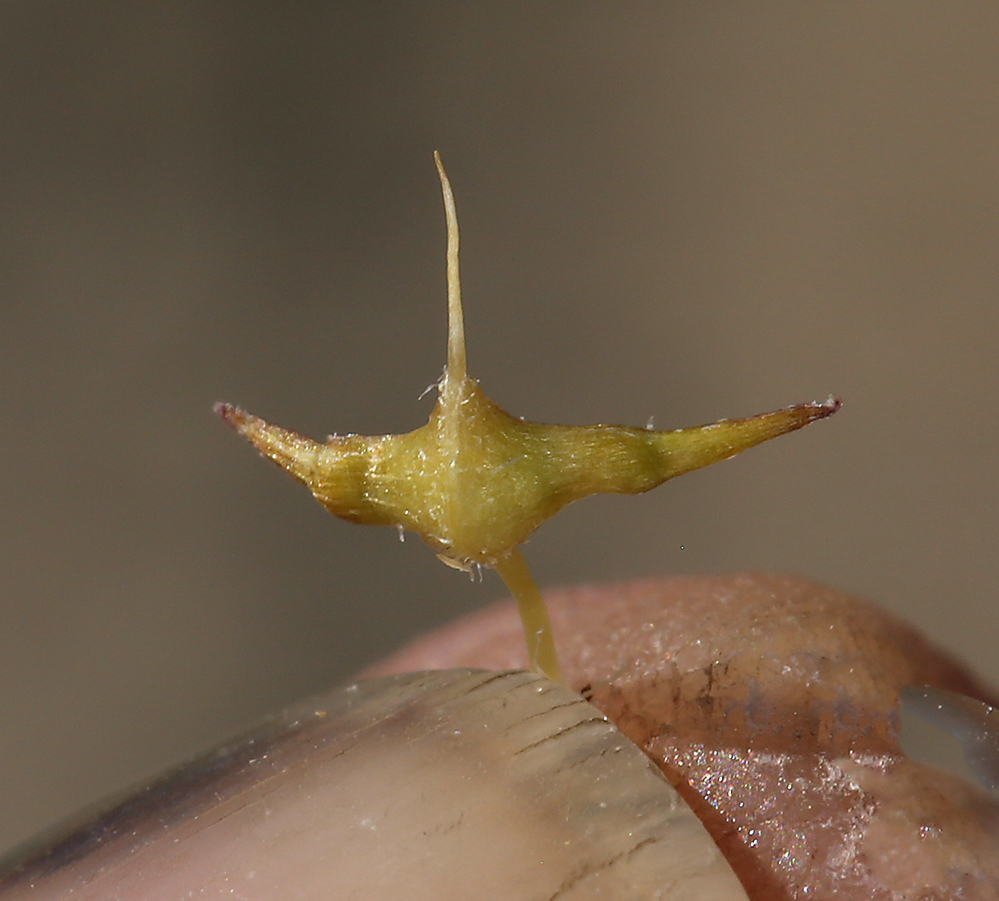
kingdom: Plantae
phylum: Tracheophyta
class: Magnoliopsida
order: Brassicales
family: Cleomaceae
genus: Cleomella
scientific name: Cleomella obtusifolia
